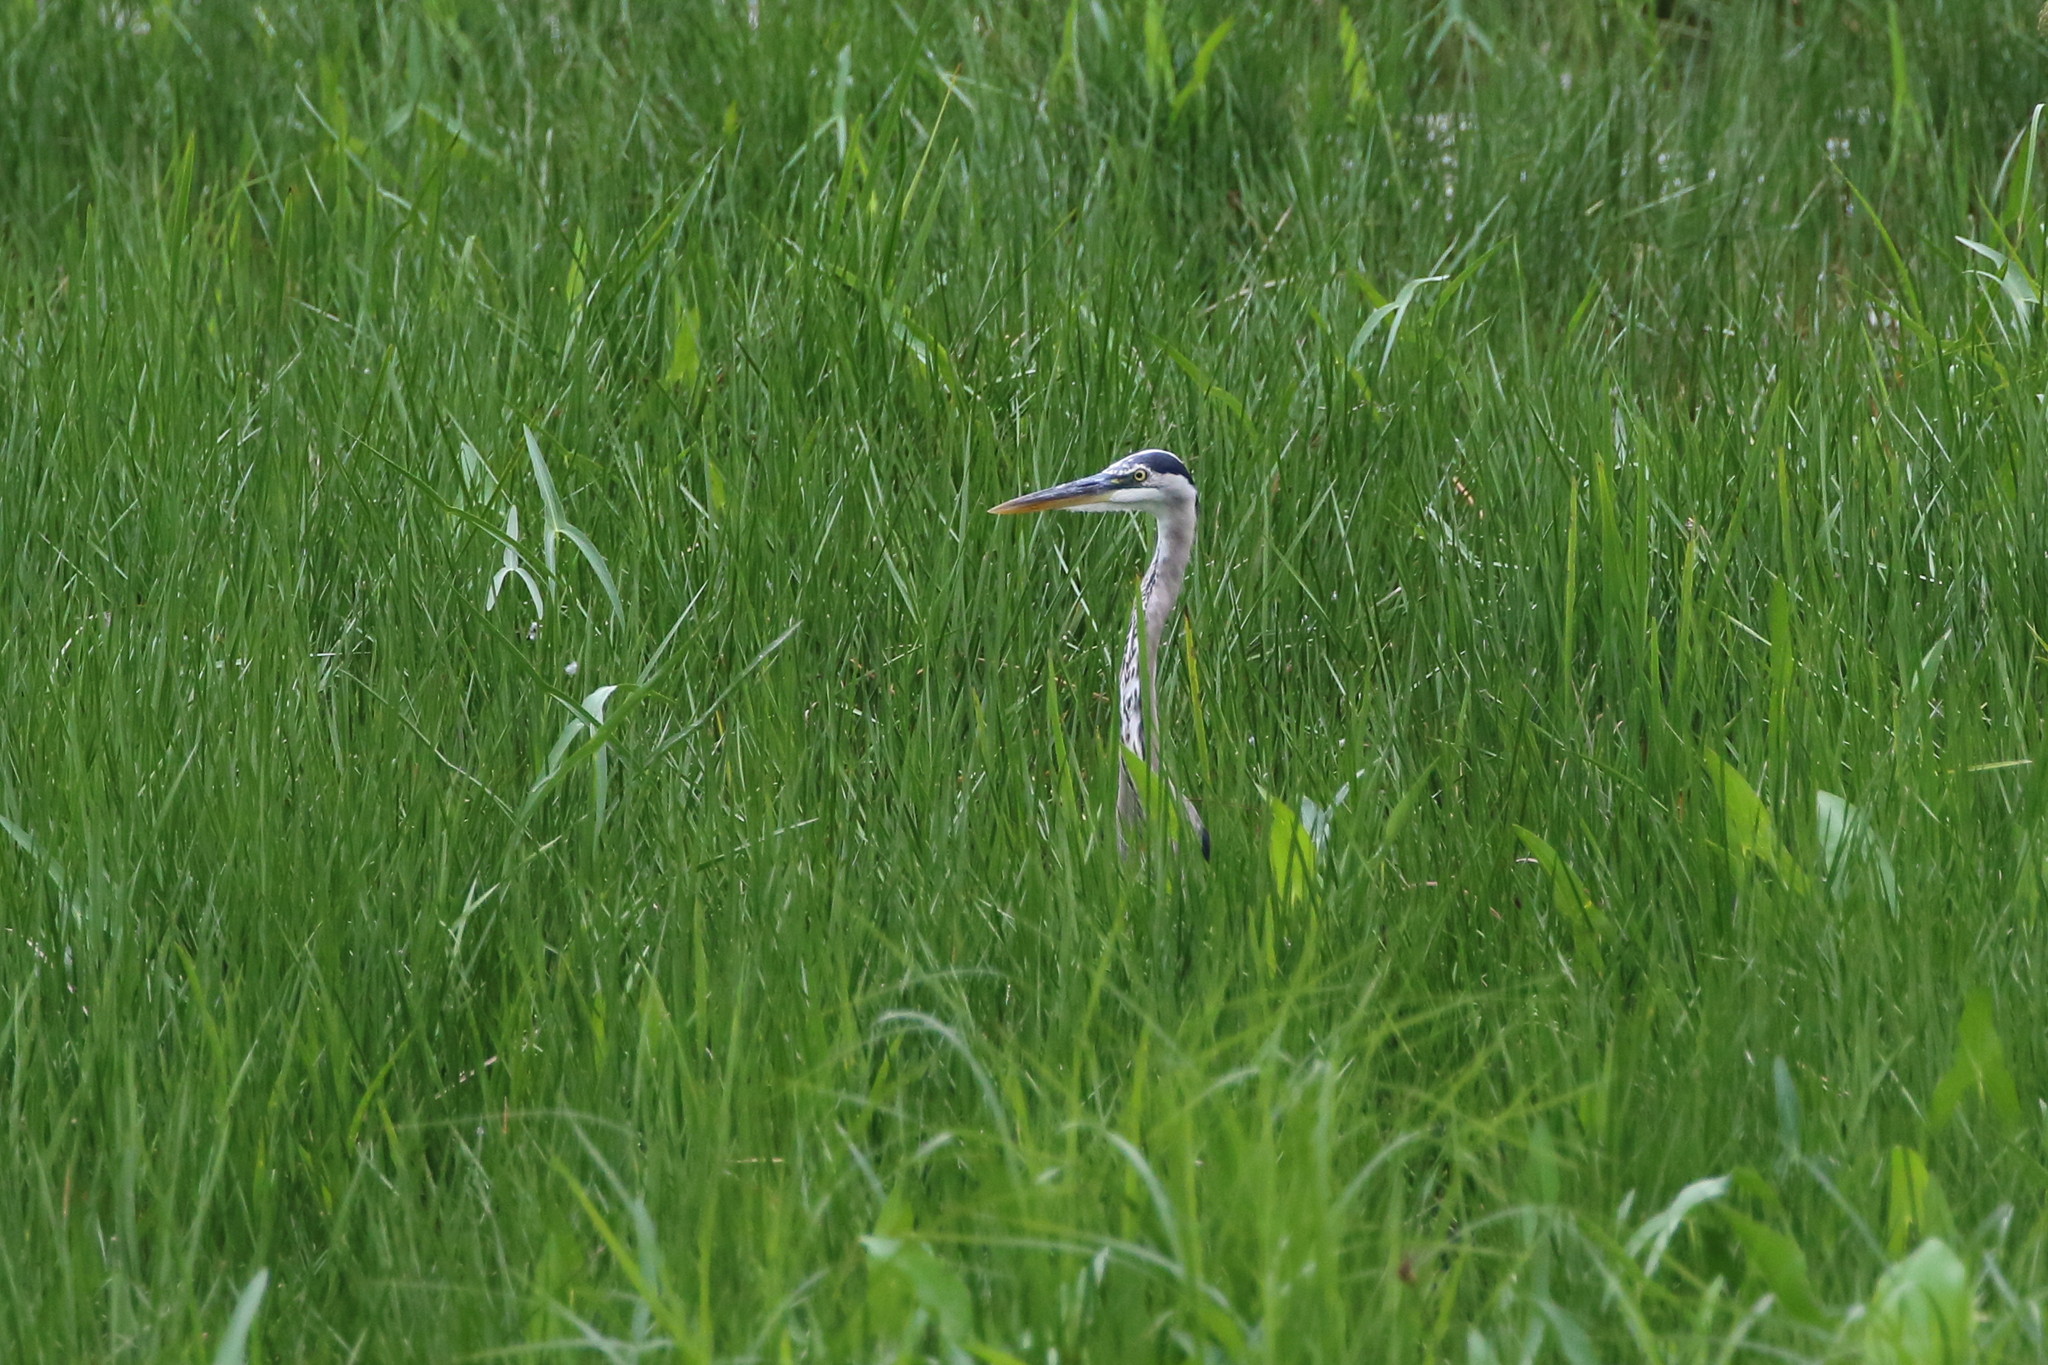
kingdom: Animalia
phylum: Chordata
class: Aves
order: Pelecaniformes
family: Ardeidae
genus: Ardea
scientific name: Ardea herodias
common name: Great blue heron
